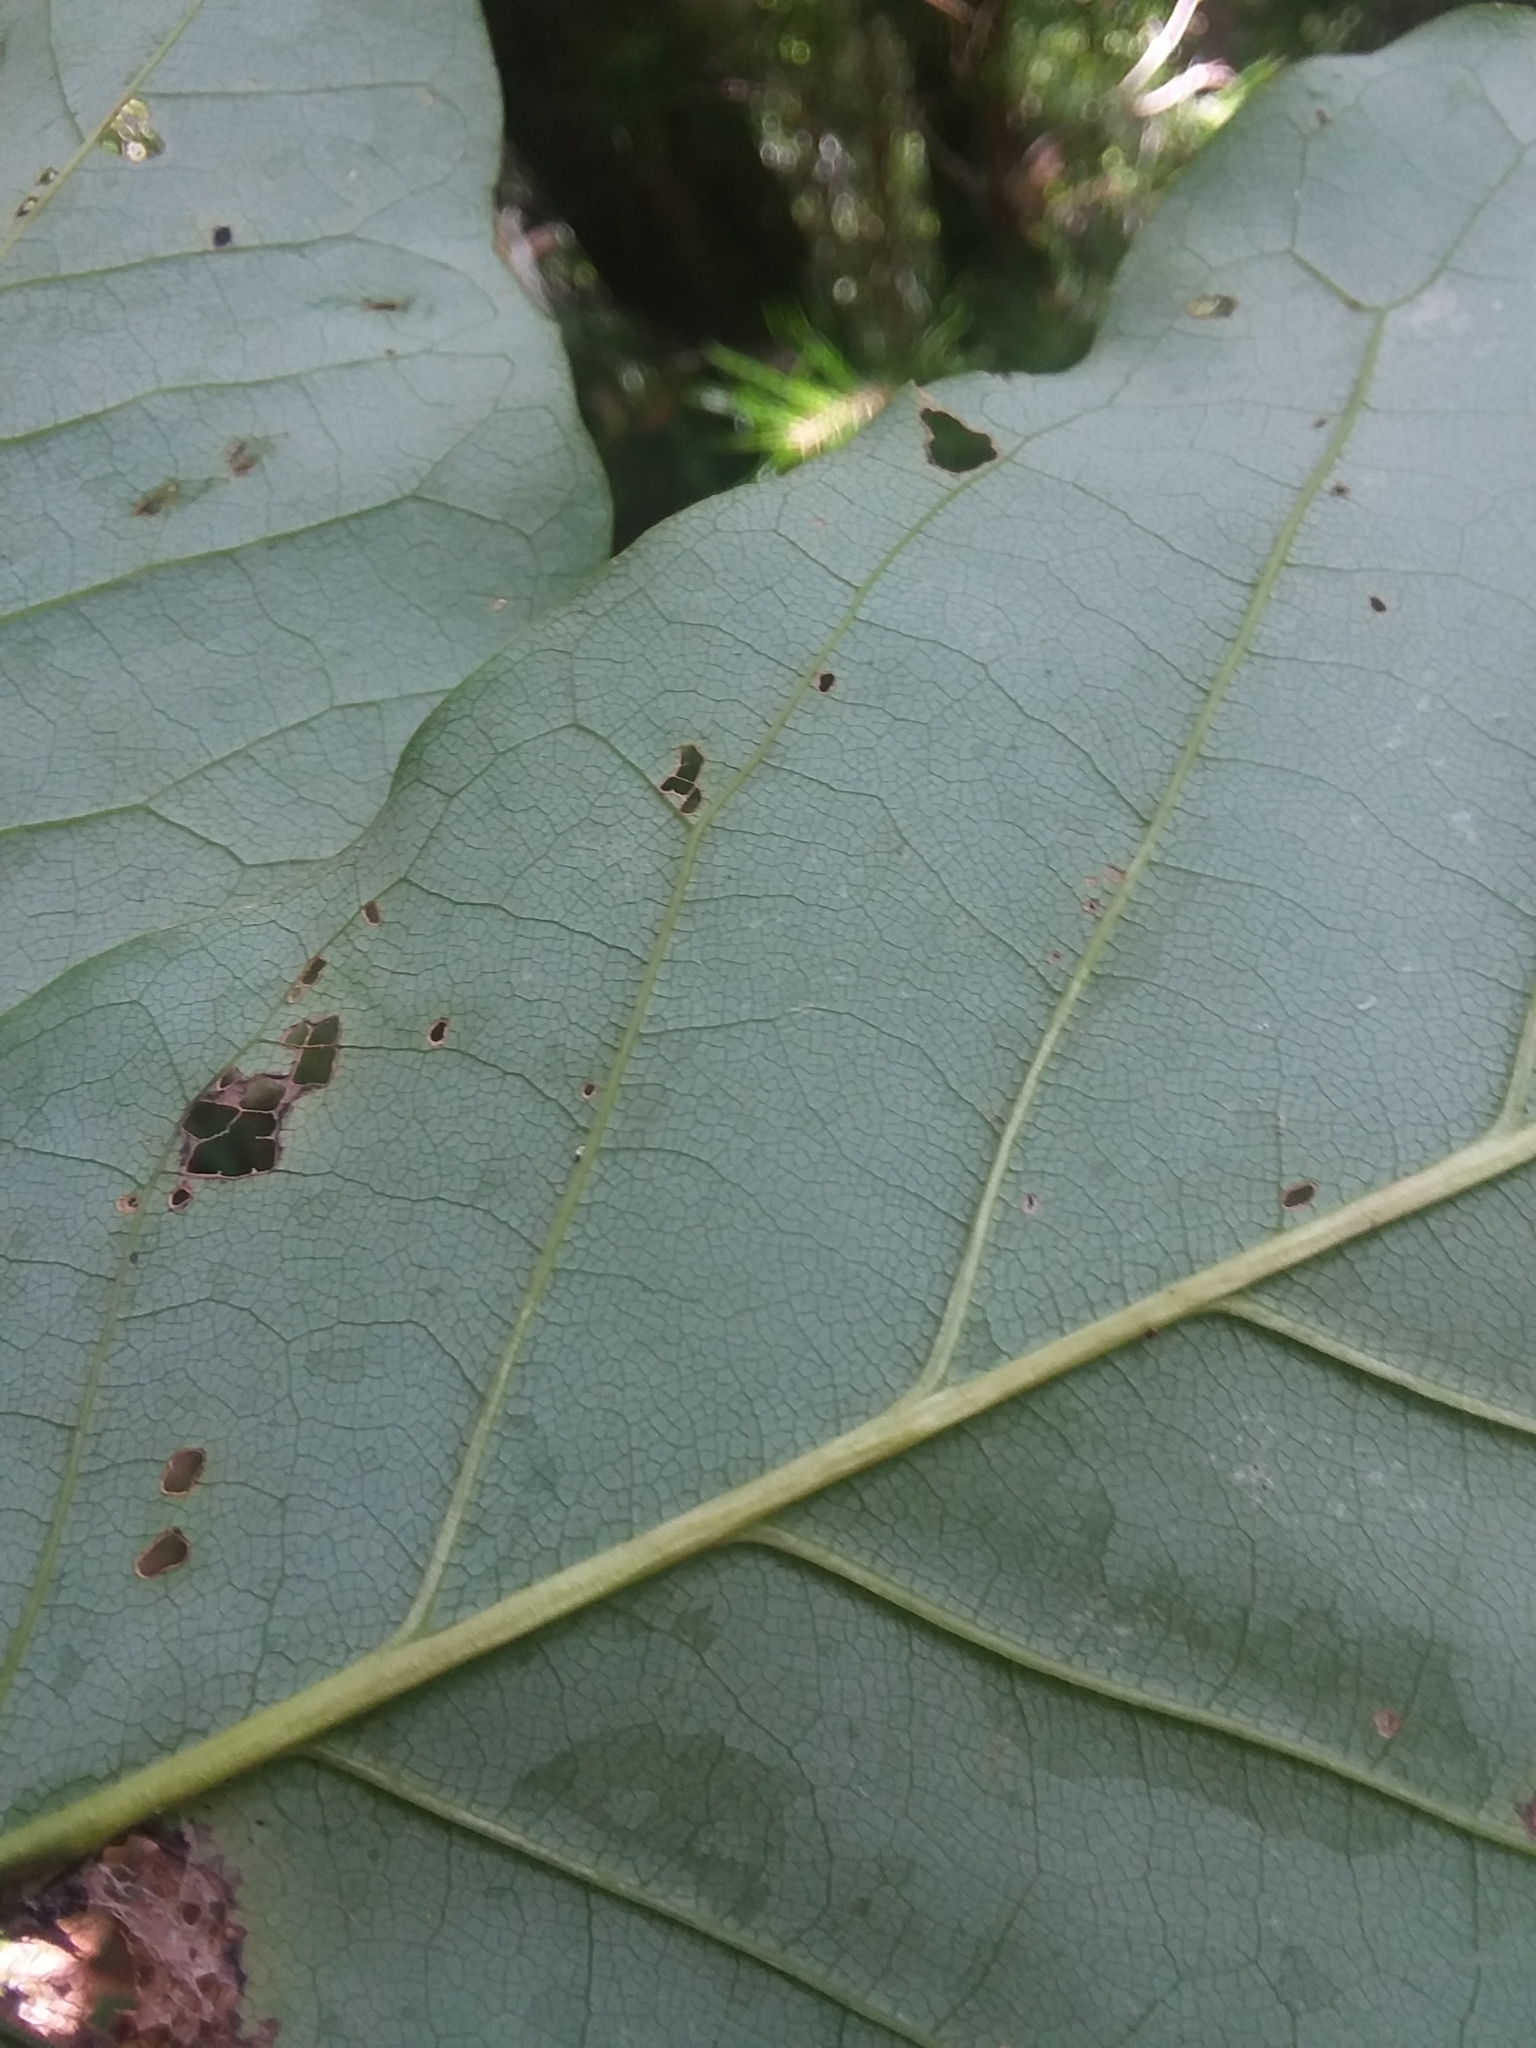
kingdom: Plantae
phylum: Tracheophyta
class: Magnoliopsida
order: Magnoliales
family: Magnoliaceae
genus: Magnolia
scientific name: Magnolia fraseri
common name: Fraser's magnolia
